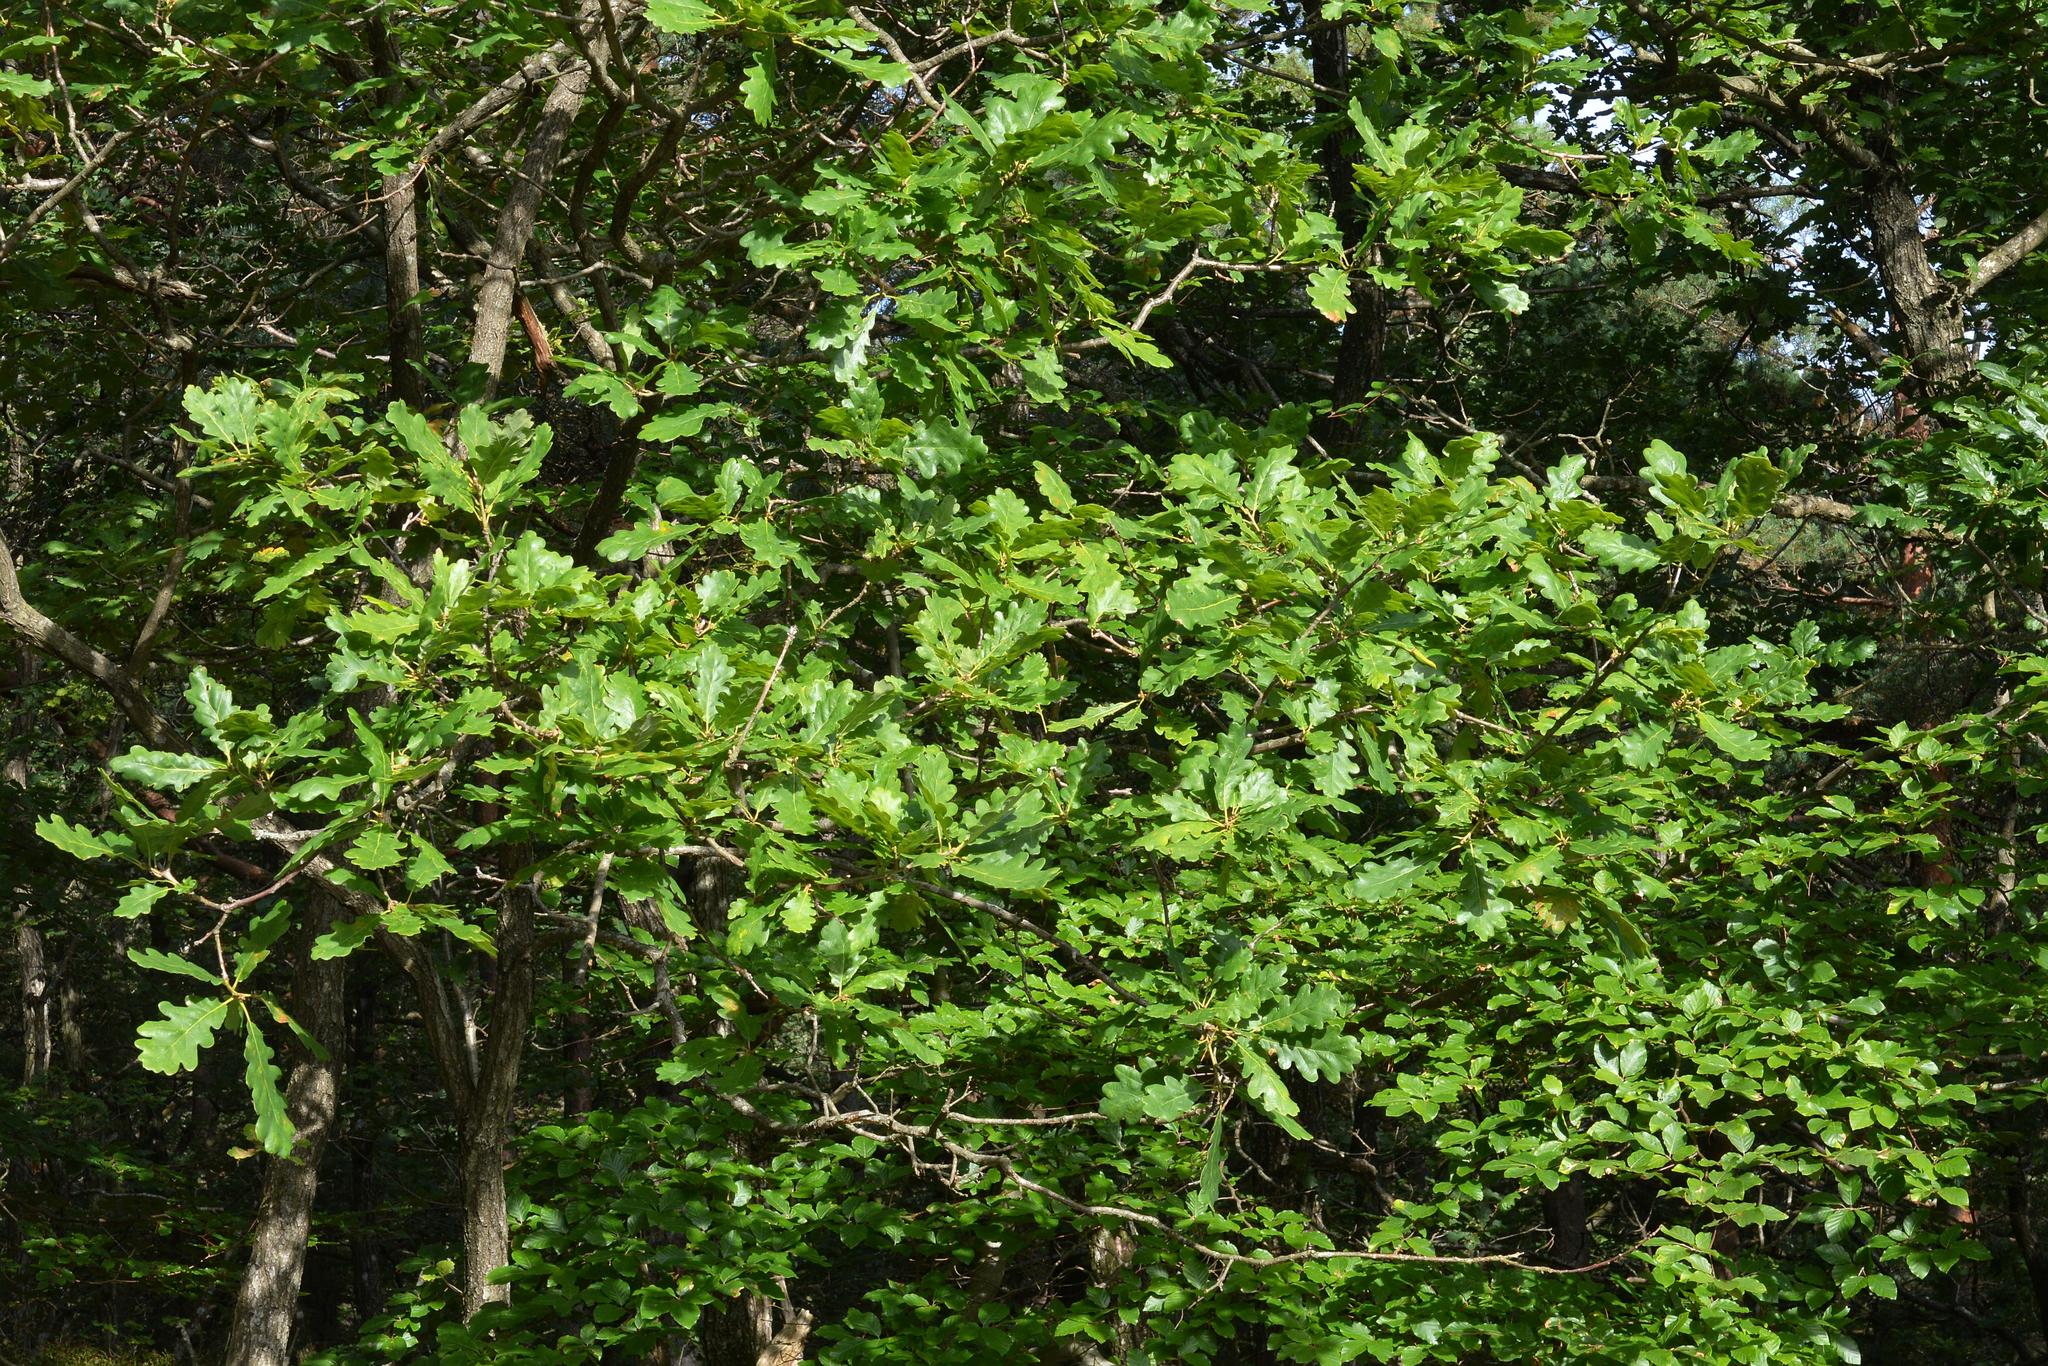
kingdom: Plantae
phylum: Tracheophyta
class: Magnoliopsida
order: Fagales
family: Fagaceae
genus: Quercus
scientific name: Quercus petraea
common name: Sessile oak
